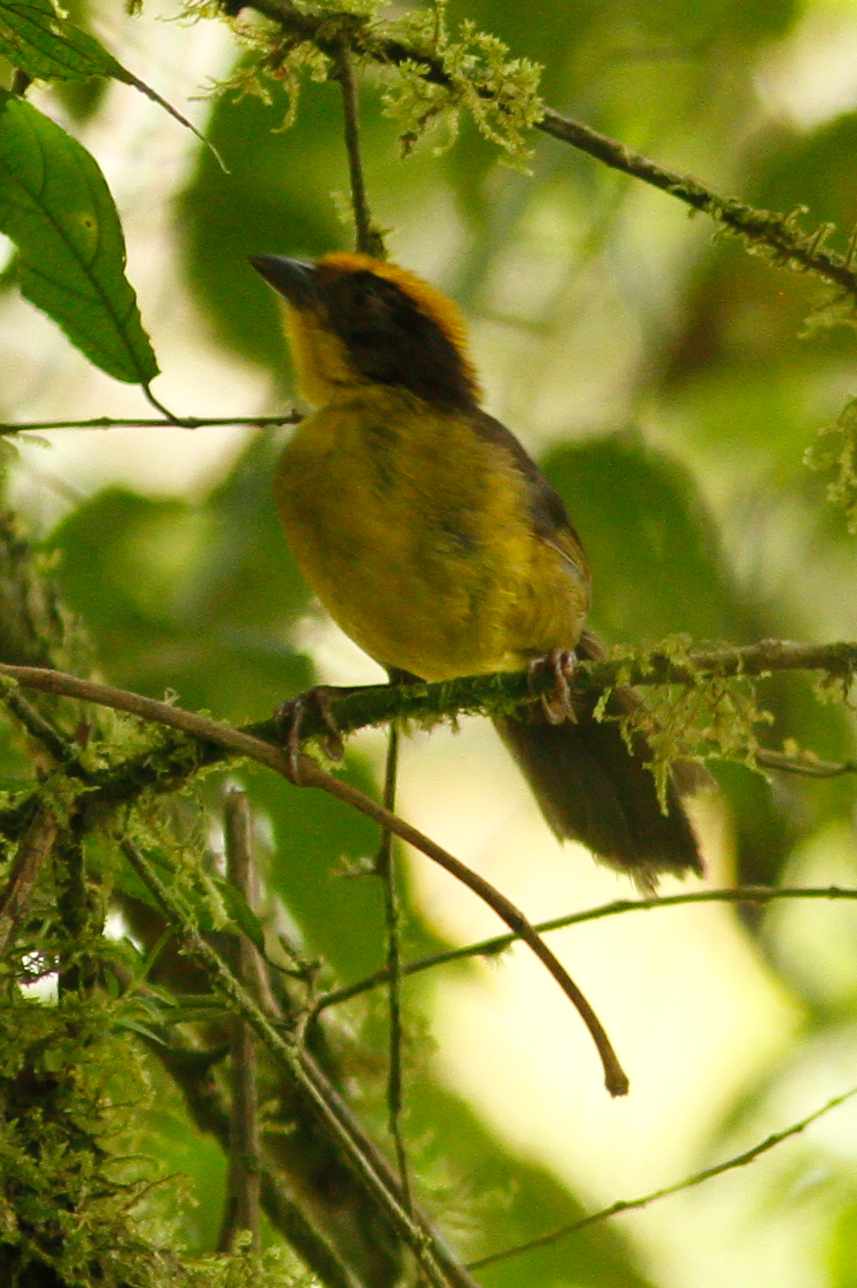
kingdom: Animalia
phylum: Chordata
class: Aves
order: Passeriformes
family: Passerellidae
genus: Atlapetes
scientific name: Atlapetes tricolor
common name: Tricolored brushfinch
